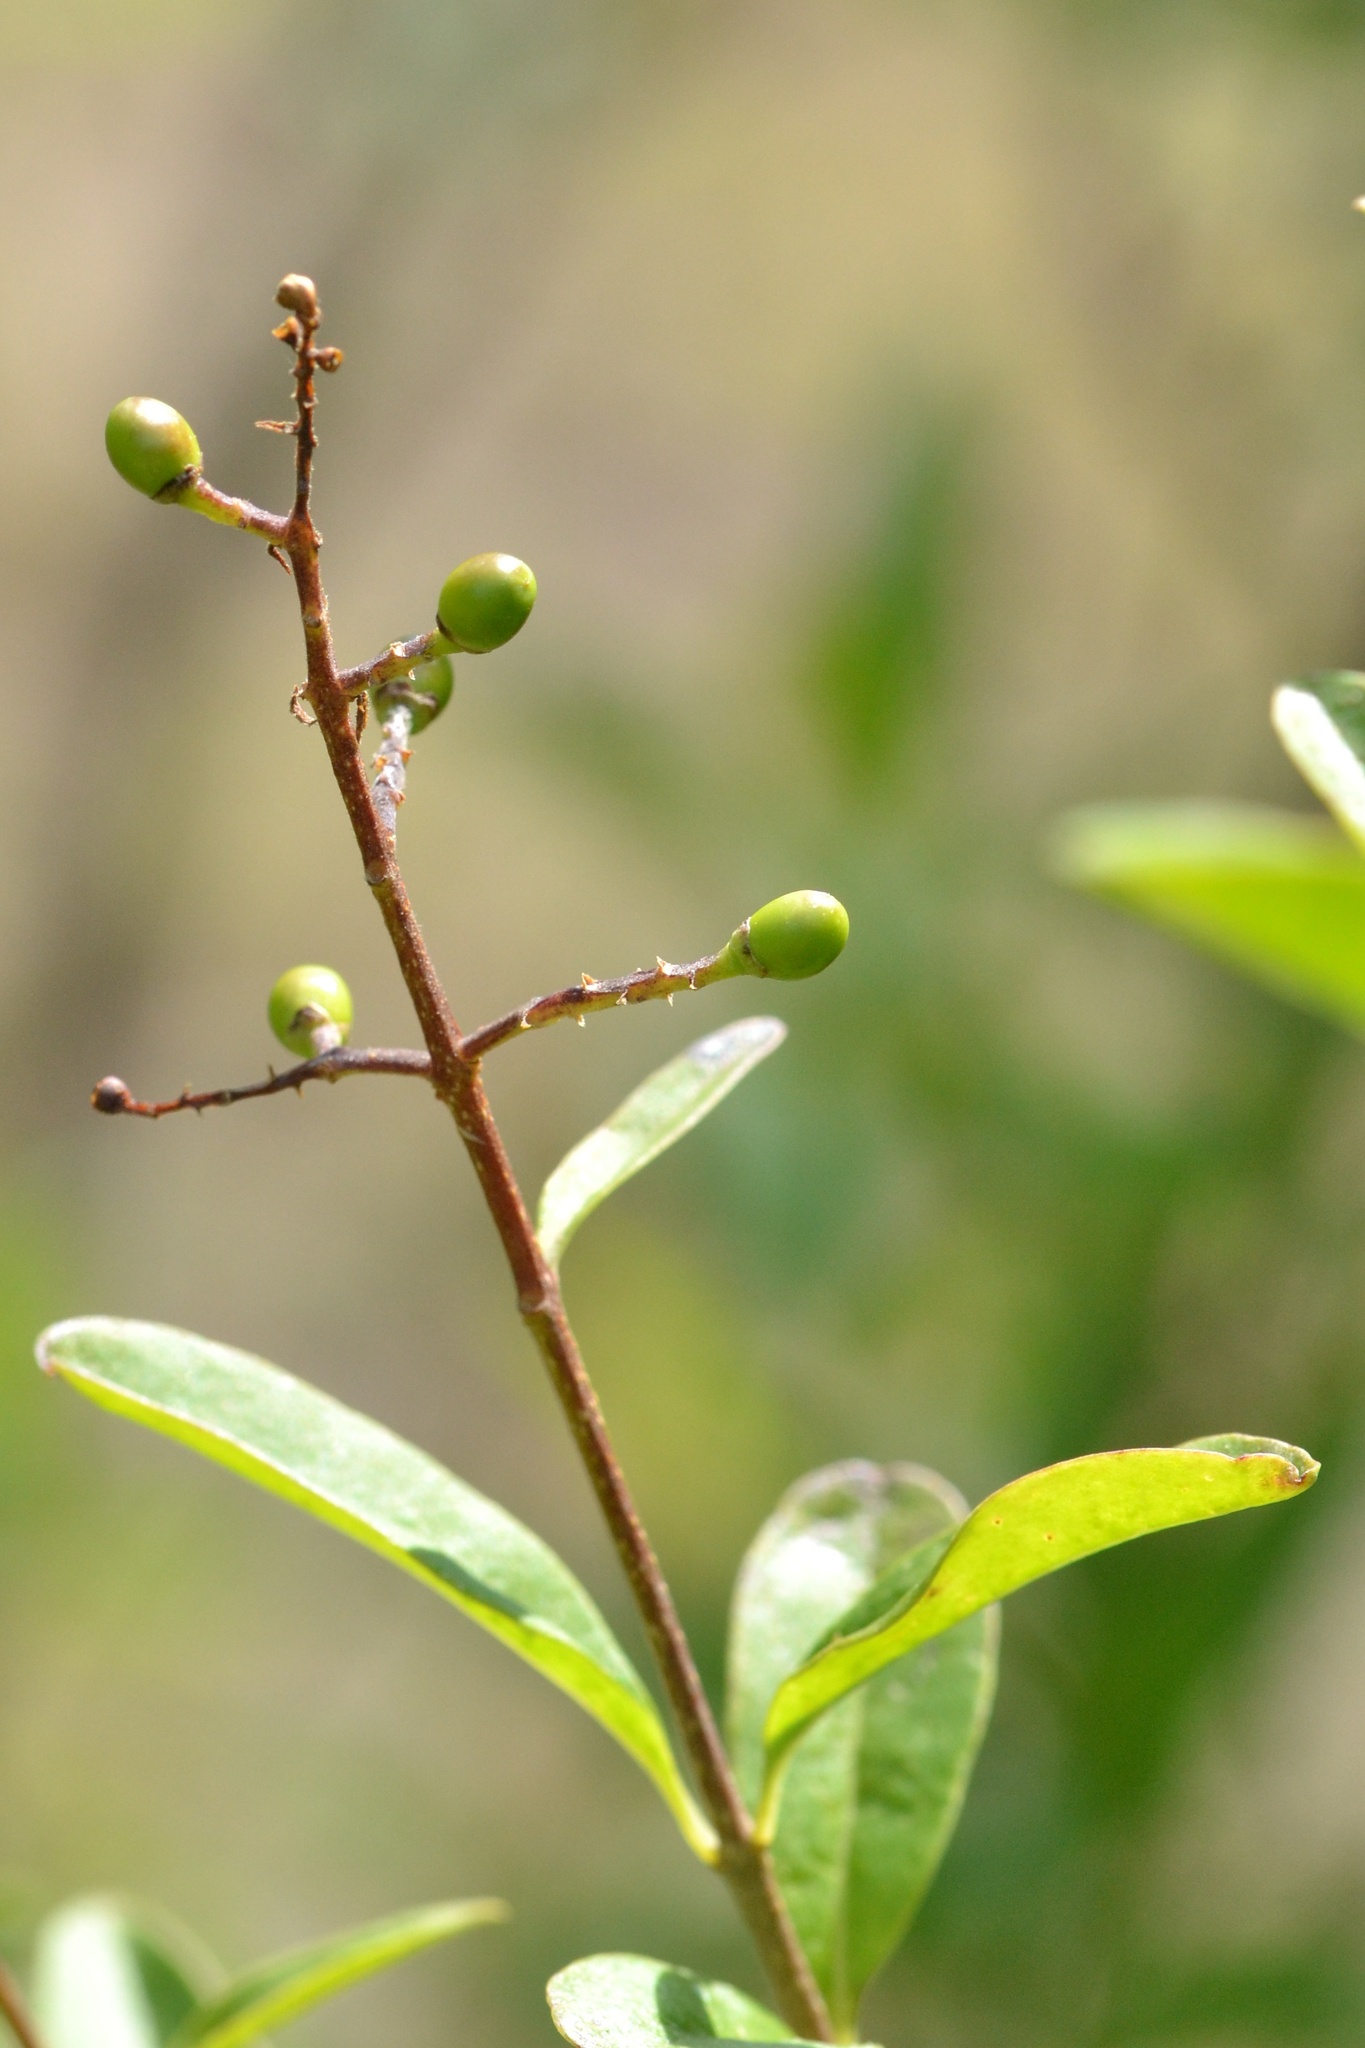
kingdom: Plantae
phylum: Tracheophyta
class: Magnoliopsida
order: Lamiales
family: Oleaceae
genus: Ligustrum
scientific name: Ligustrum vulgare
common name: Wild privet
